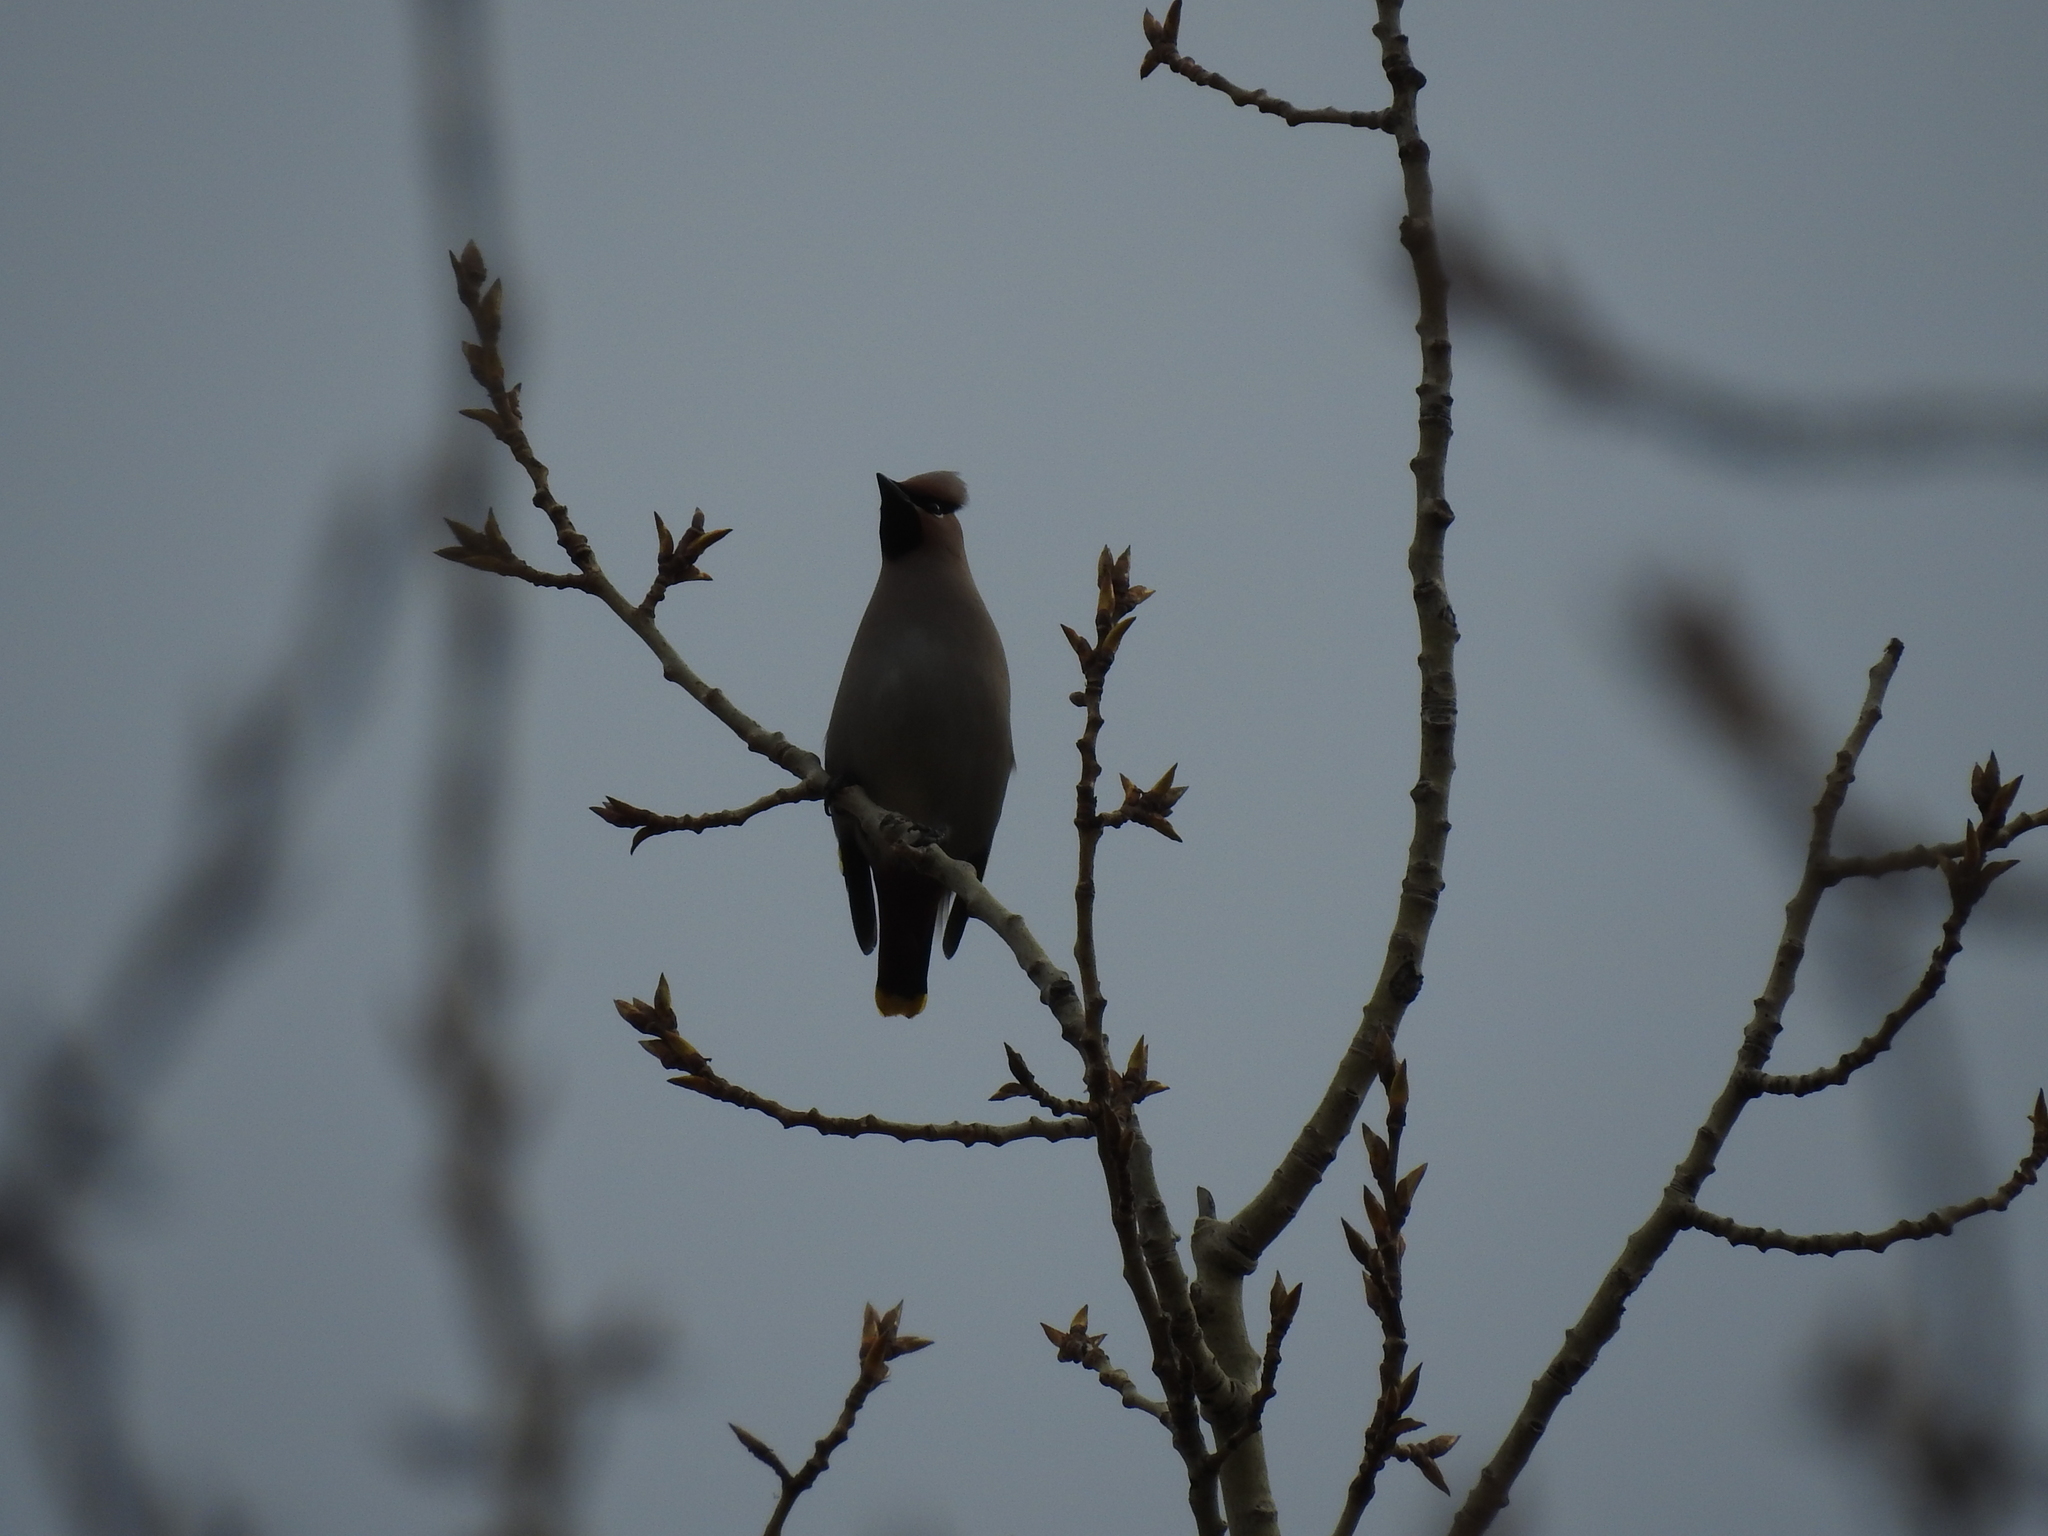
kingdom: Animalia
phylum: Chordata
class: Aves
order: Passeriformes
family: Bombycillidae
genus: Bombycilla
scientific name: Bombycilla garrulus
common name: Bohemian waxwing
